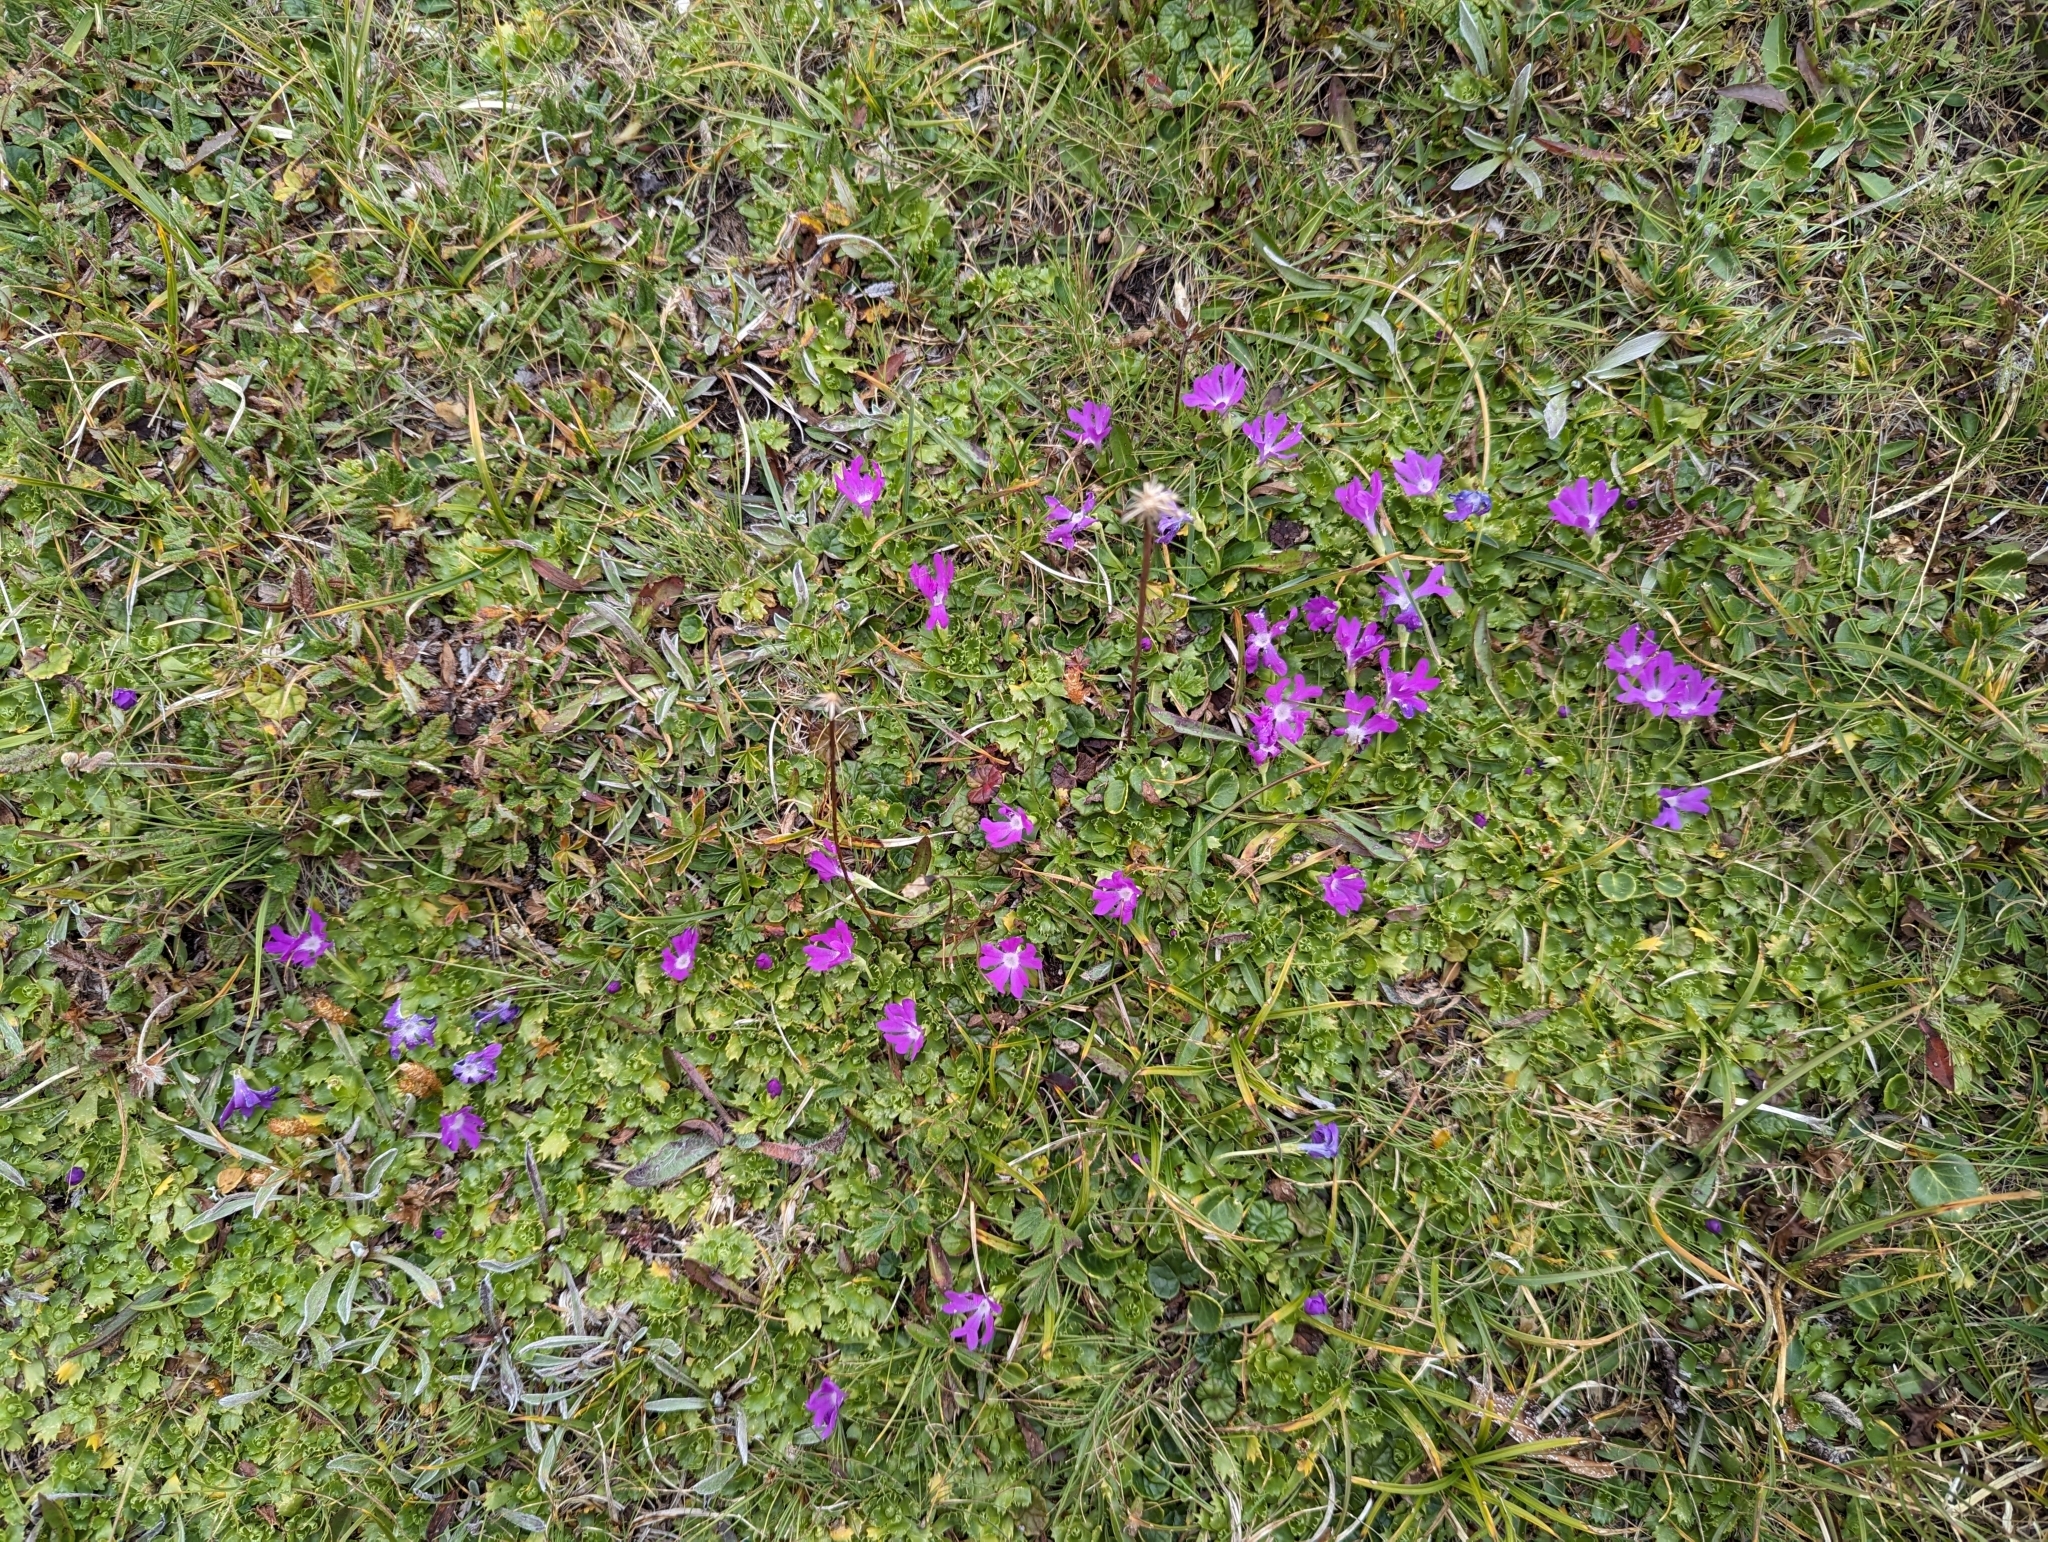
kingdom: Plantae
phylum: Tracheophyta
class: Magnoliopsida
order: Ericales
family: Primulaceae
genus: Primula
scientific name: Primula minima
